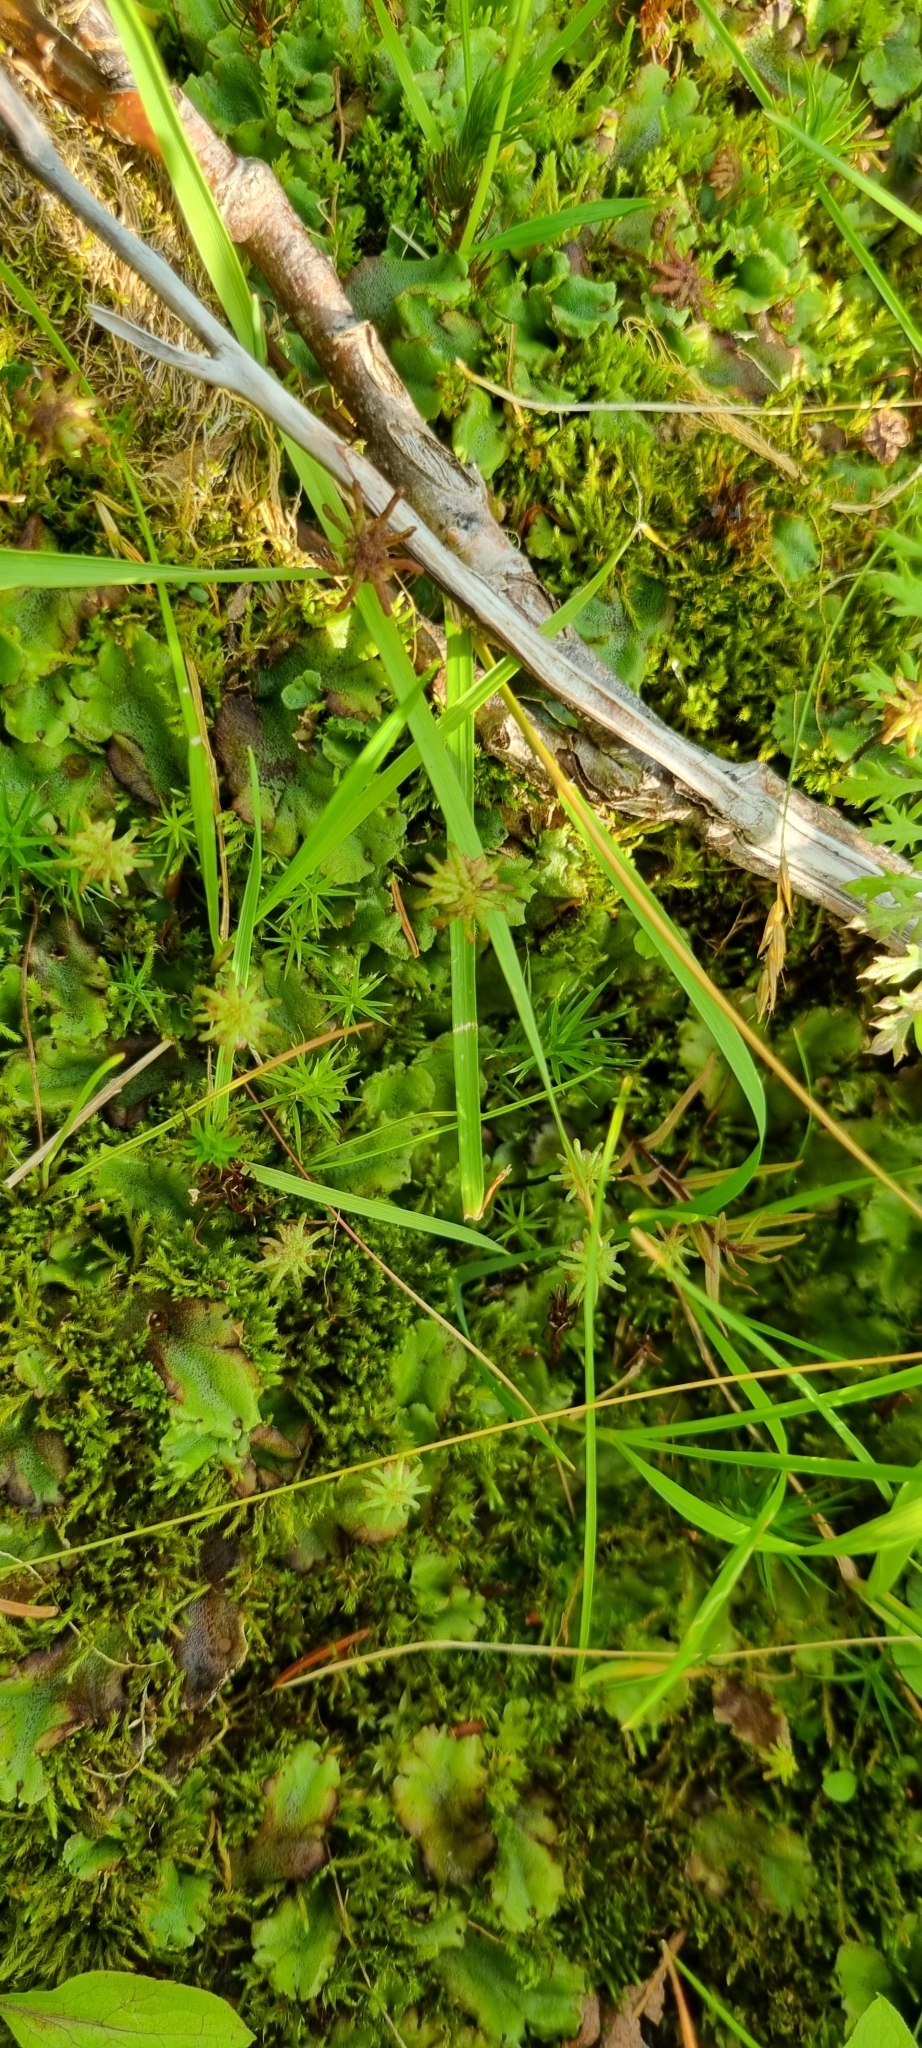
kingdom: Plantae
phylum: Marchantiophyta
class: Marchantiopsida
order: Marchantiales
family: Marchantiaceae
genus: Marchantia
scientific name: Marchantia polymorpha
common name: Common liverwort
